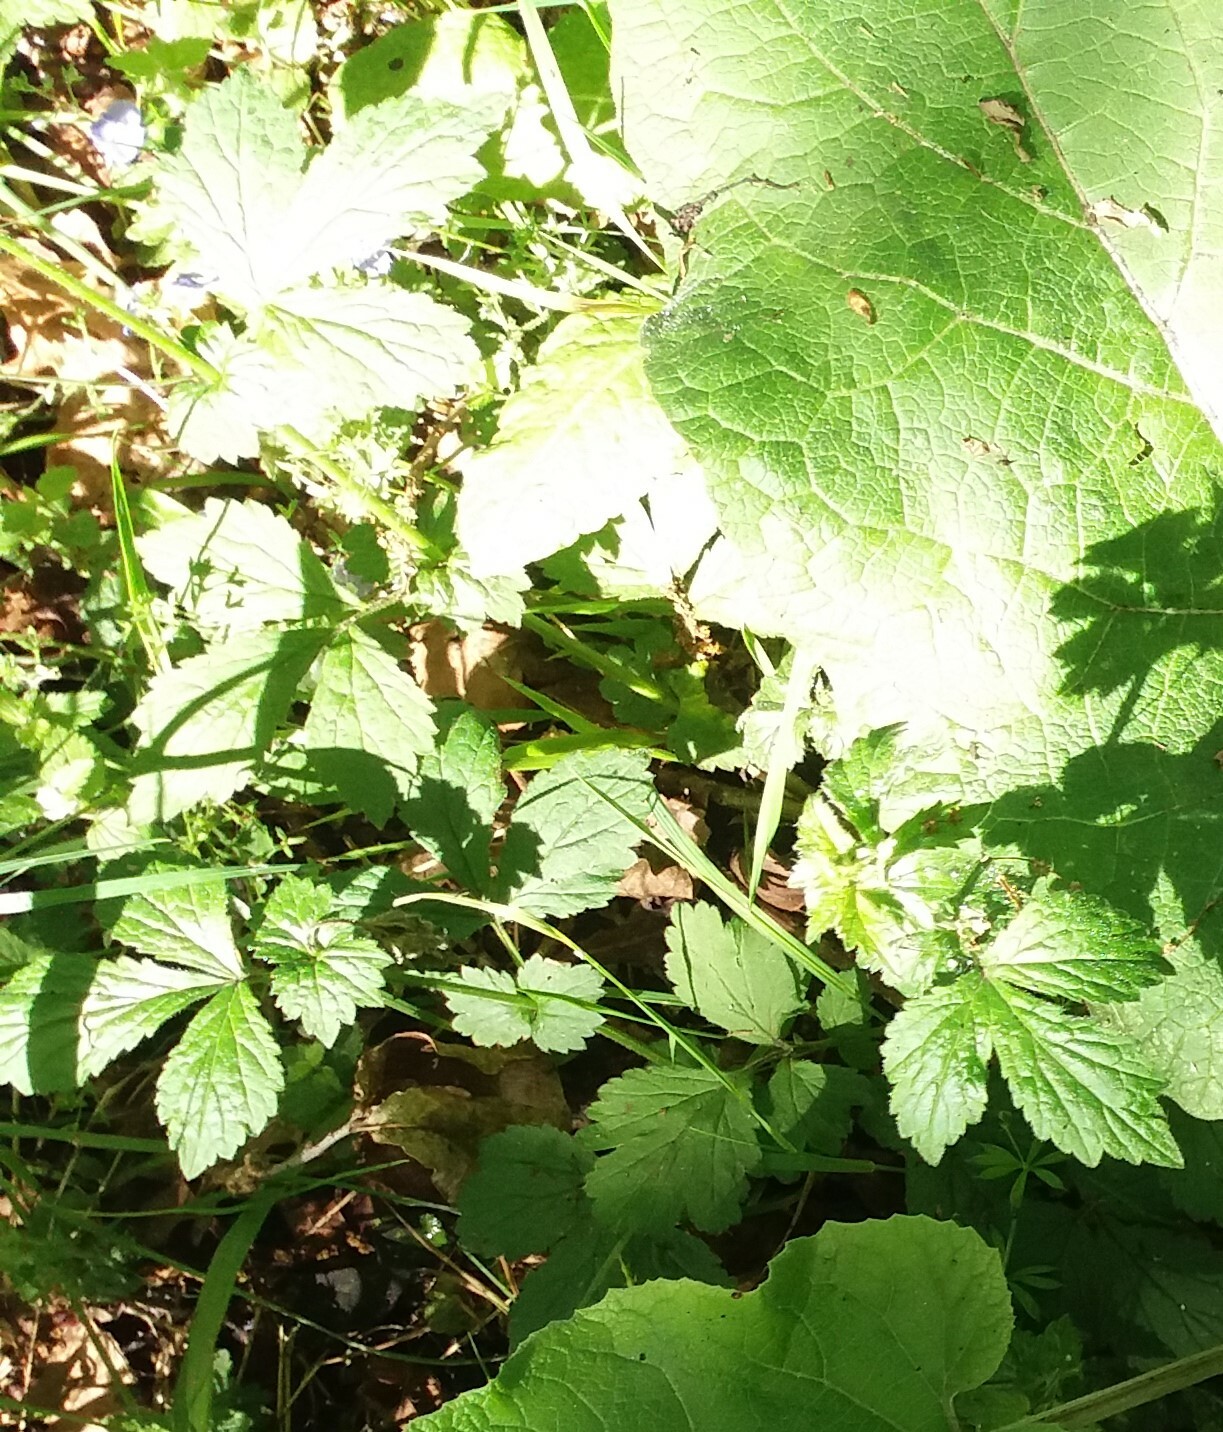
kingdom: Plantae
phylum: Tracheophyta
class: Magnoliopsida
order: Rosales
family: Rosaceae
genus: Geum
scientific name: Geum urbanum
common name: Wood avens
